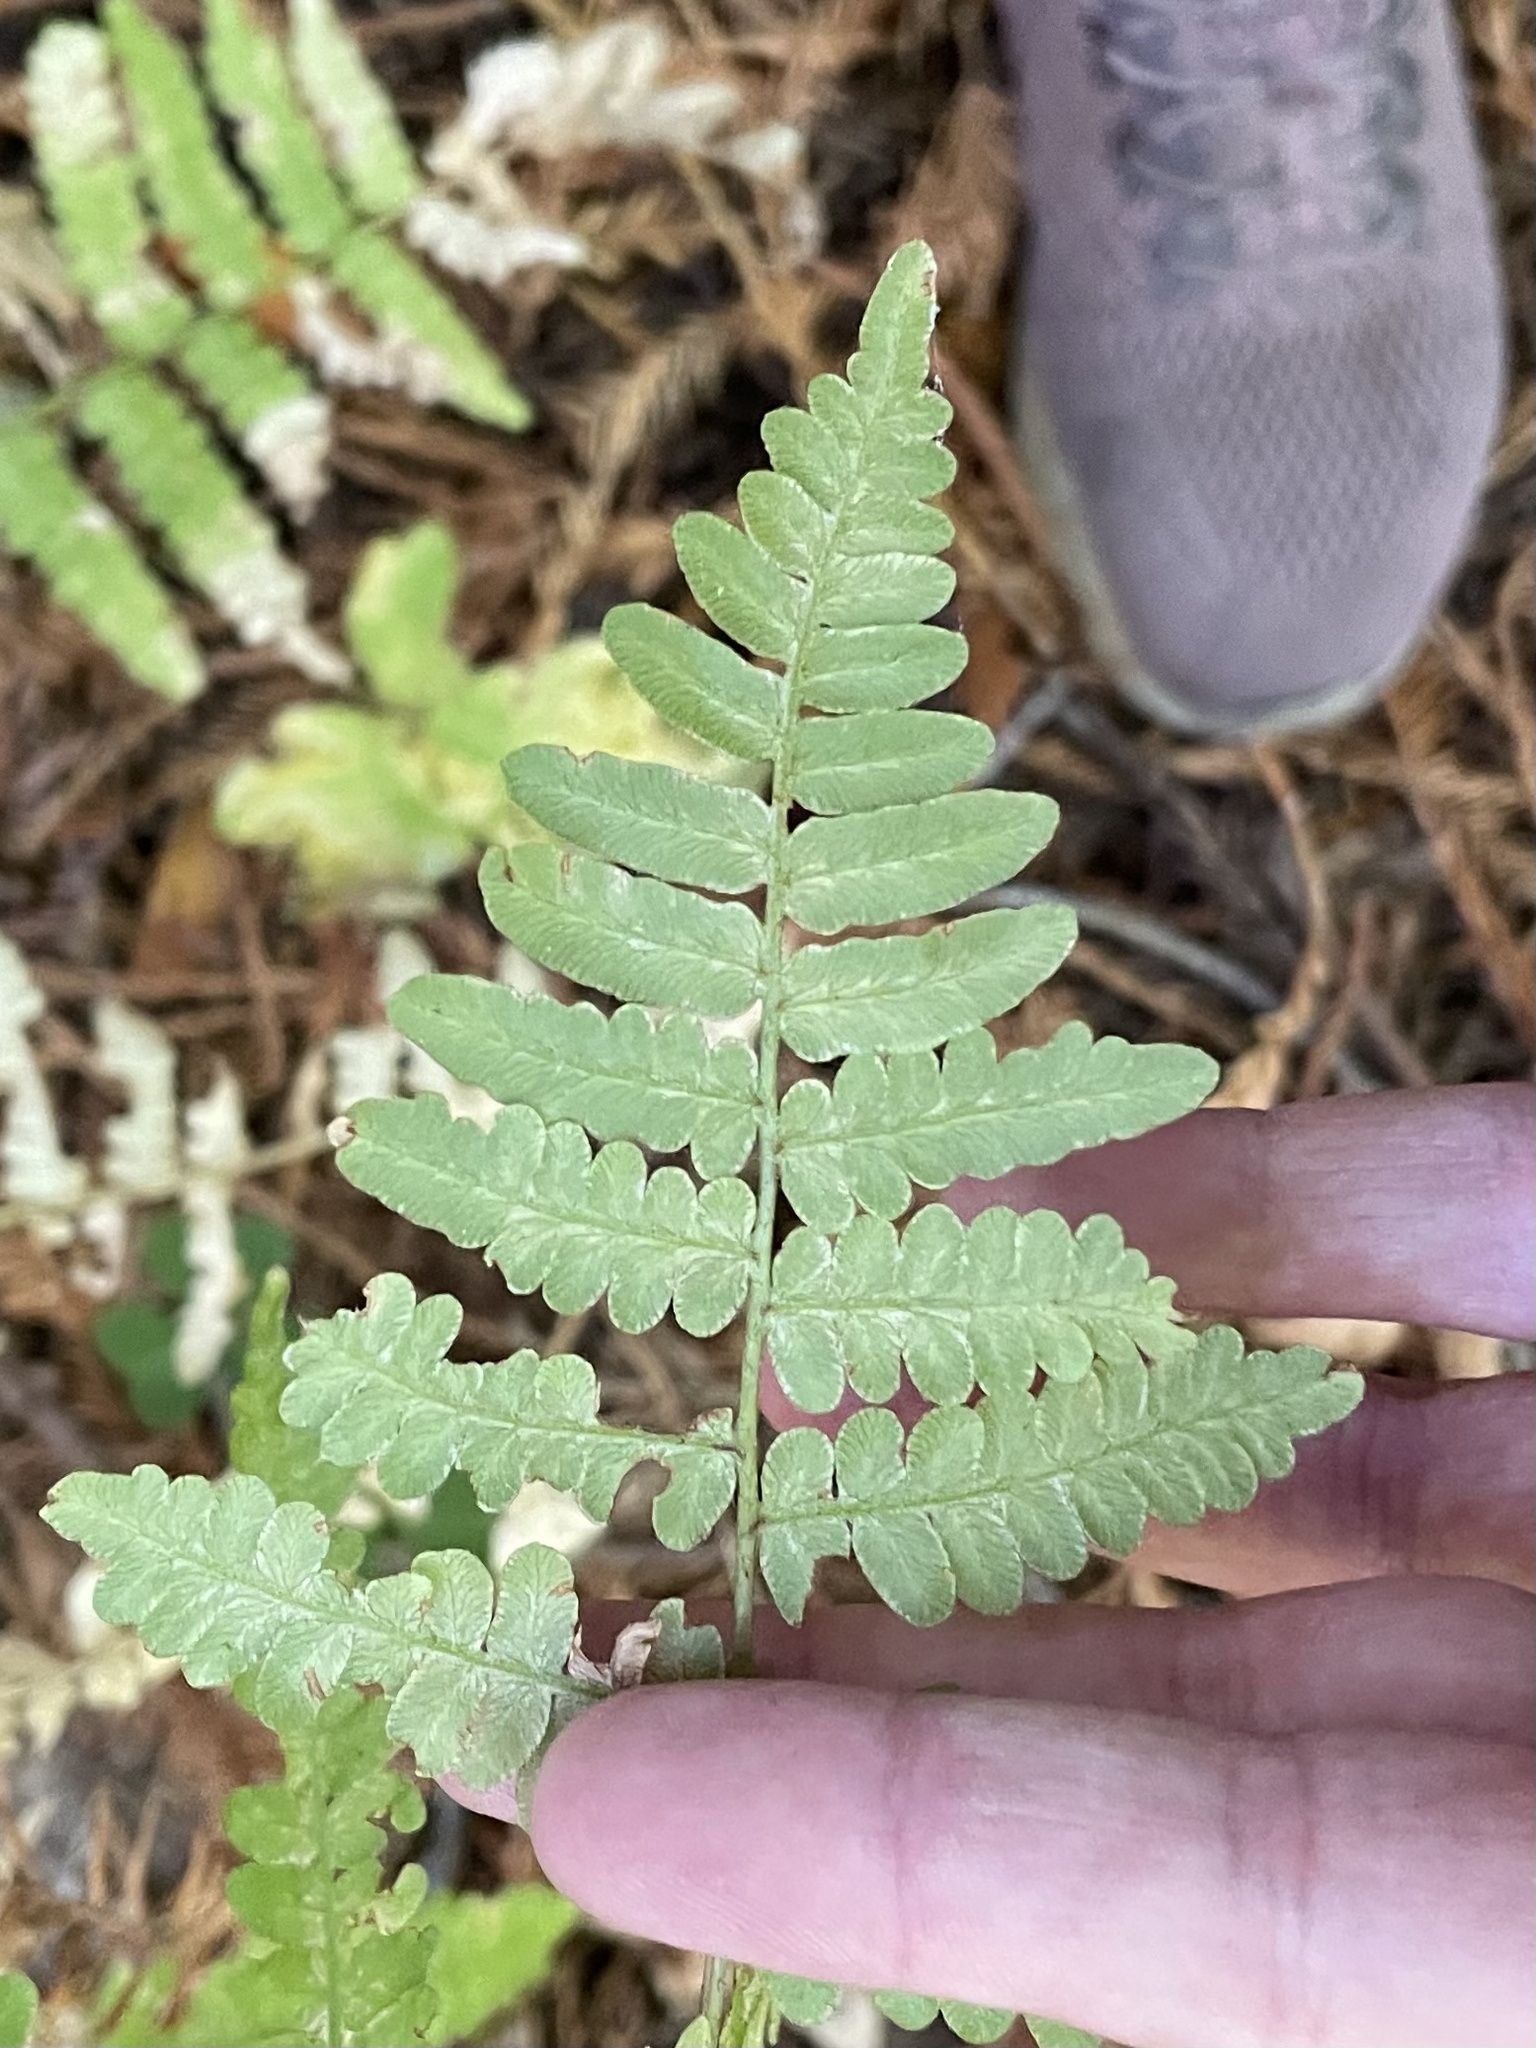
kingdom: Plantae
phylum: Tracheophyta
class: Polypodiopsida
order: Polypodiales
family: Dennstaedtiaceae
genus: Pteridium
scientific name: Pteridium aquilinum
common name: Bracken
